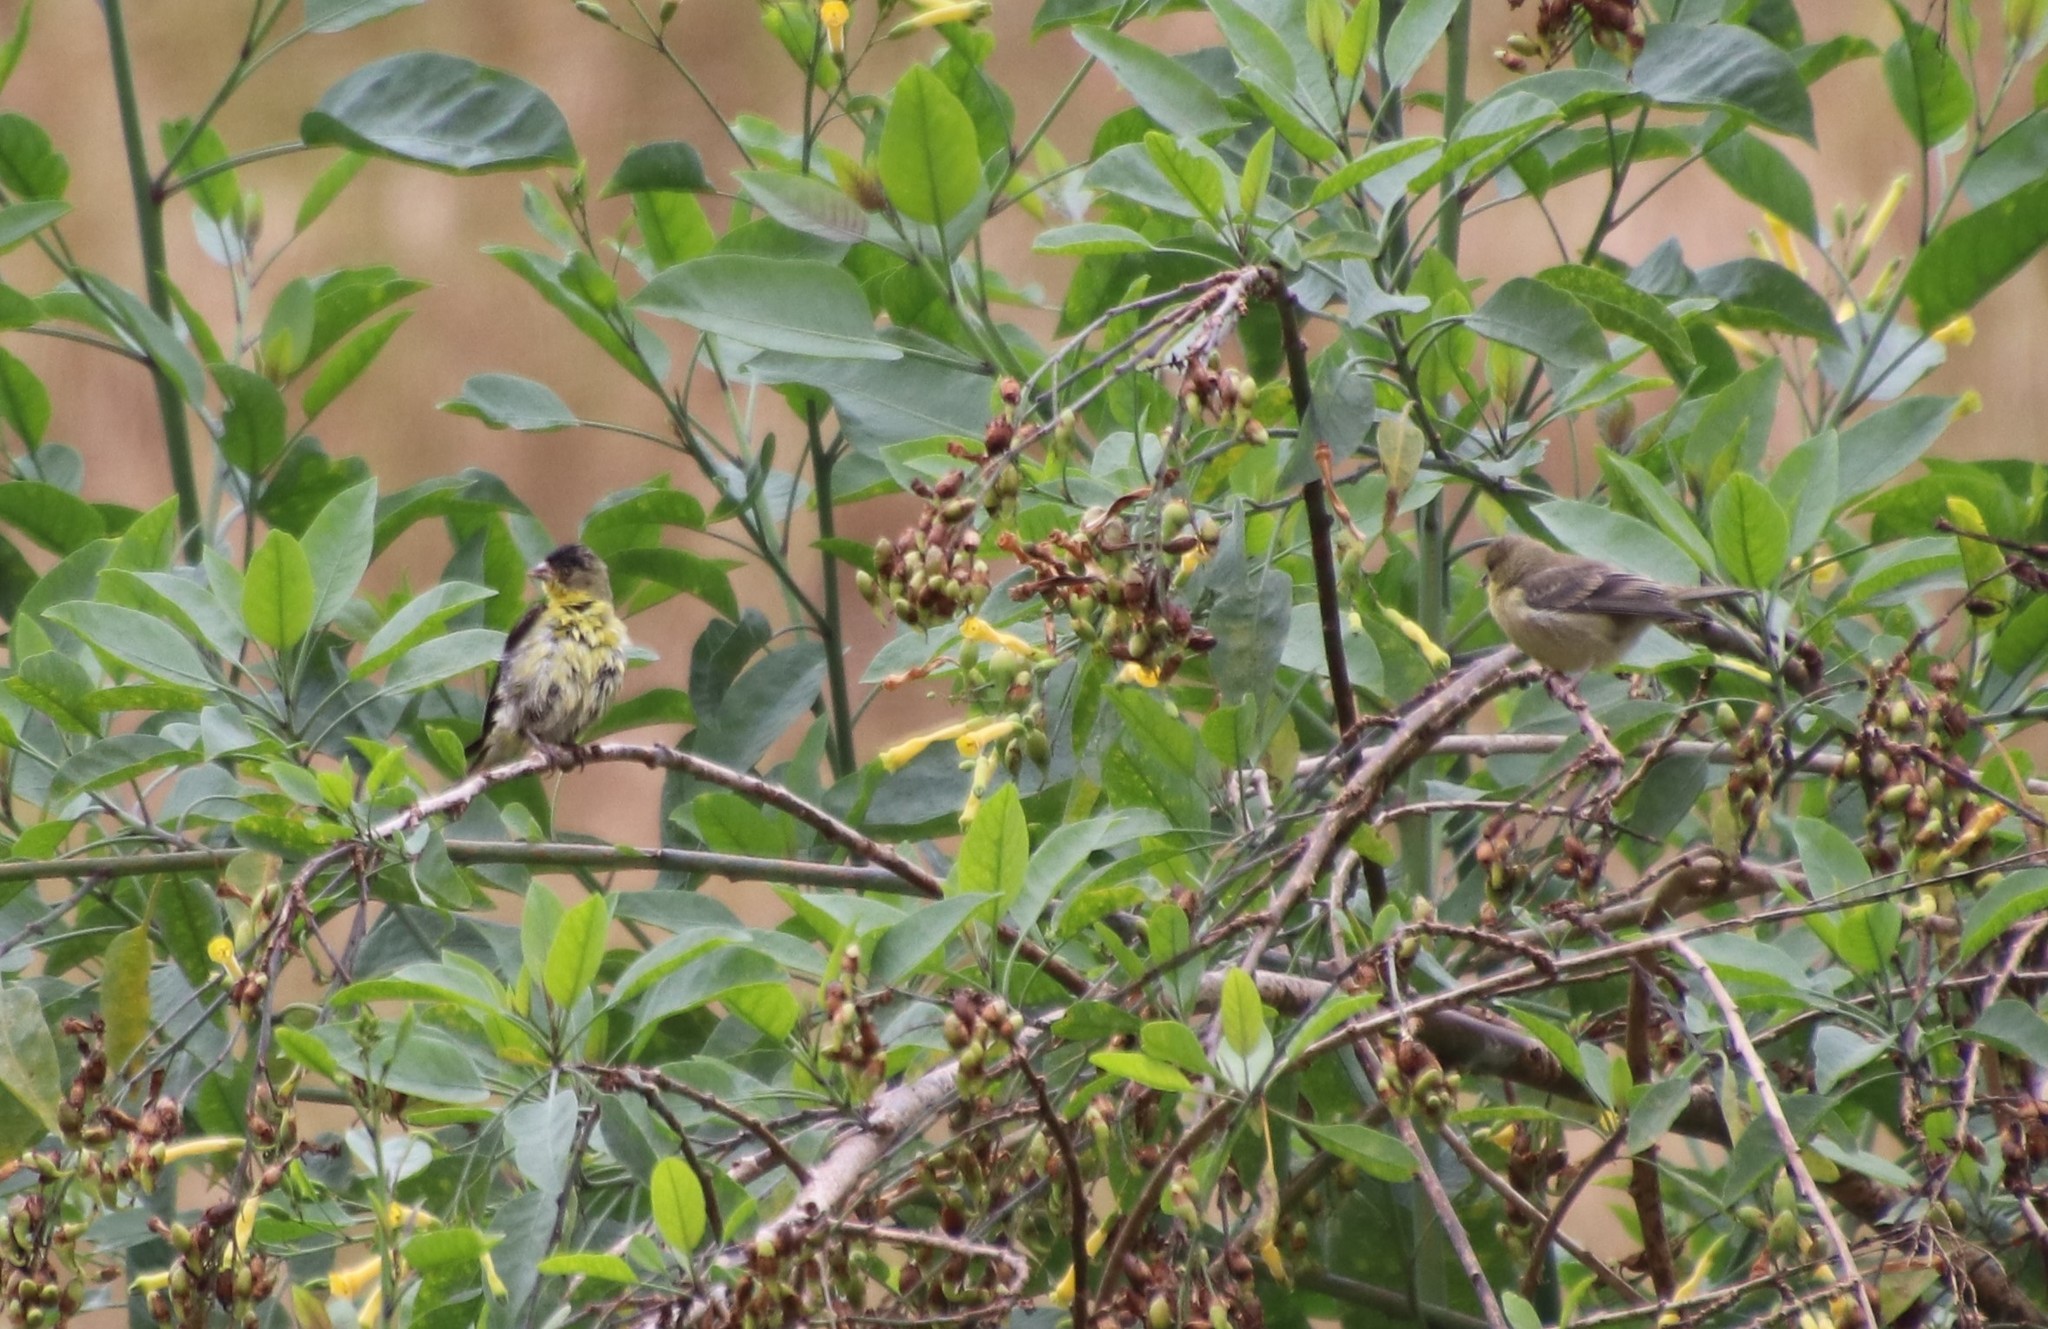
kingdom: Animalia
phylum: Chordata
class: Aves
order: Passeriformes
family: Fringillidae
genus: Spinus
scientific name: Spinus psaltria
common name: Lesser goldfinch
